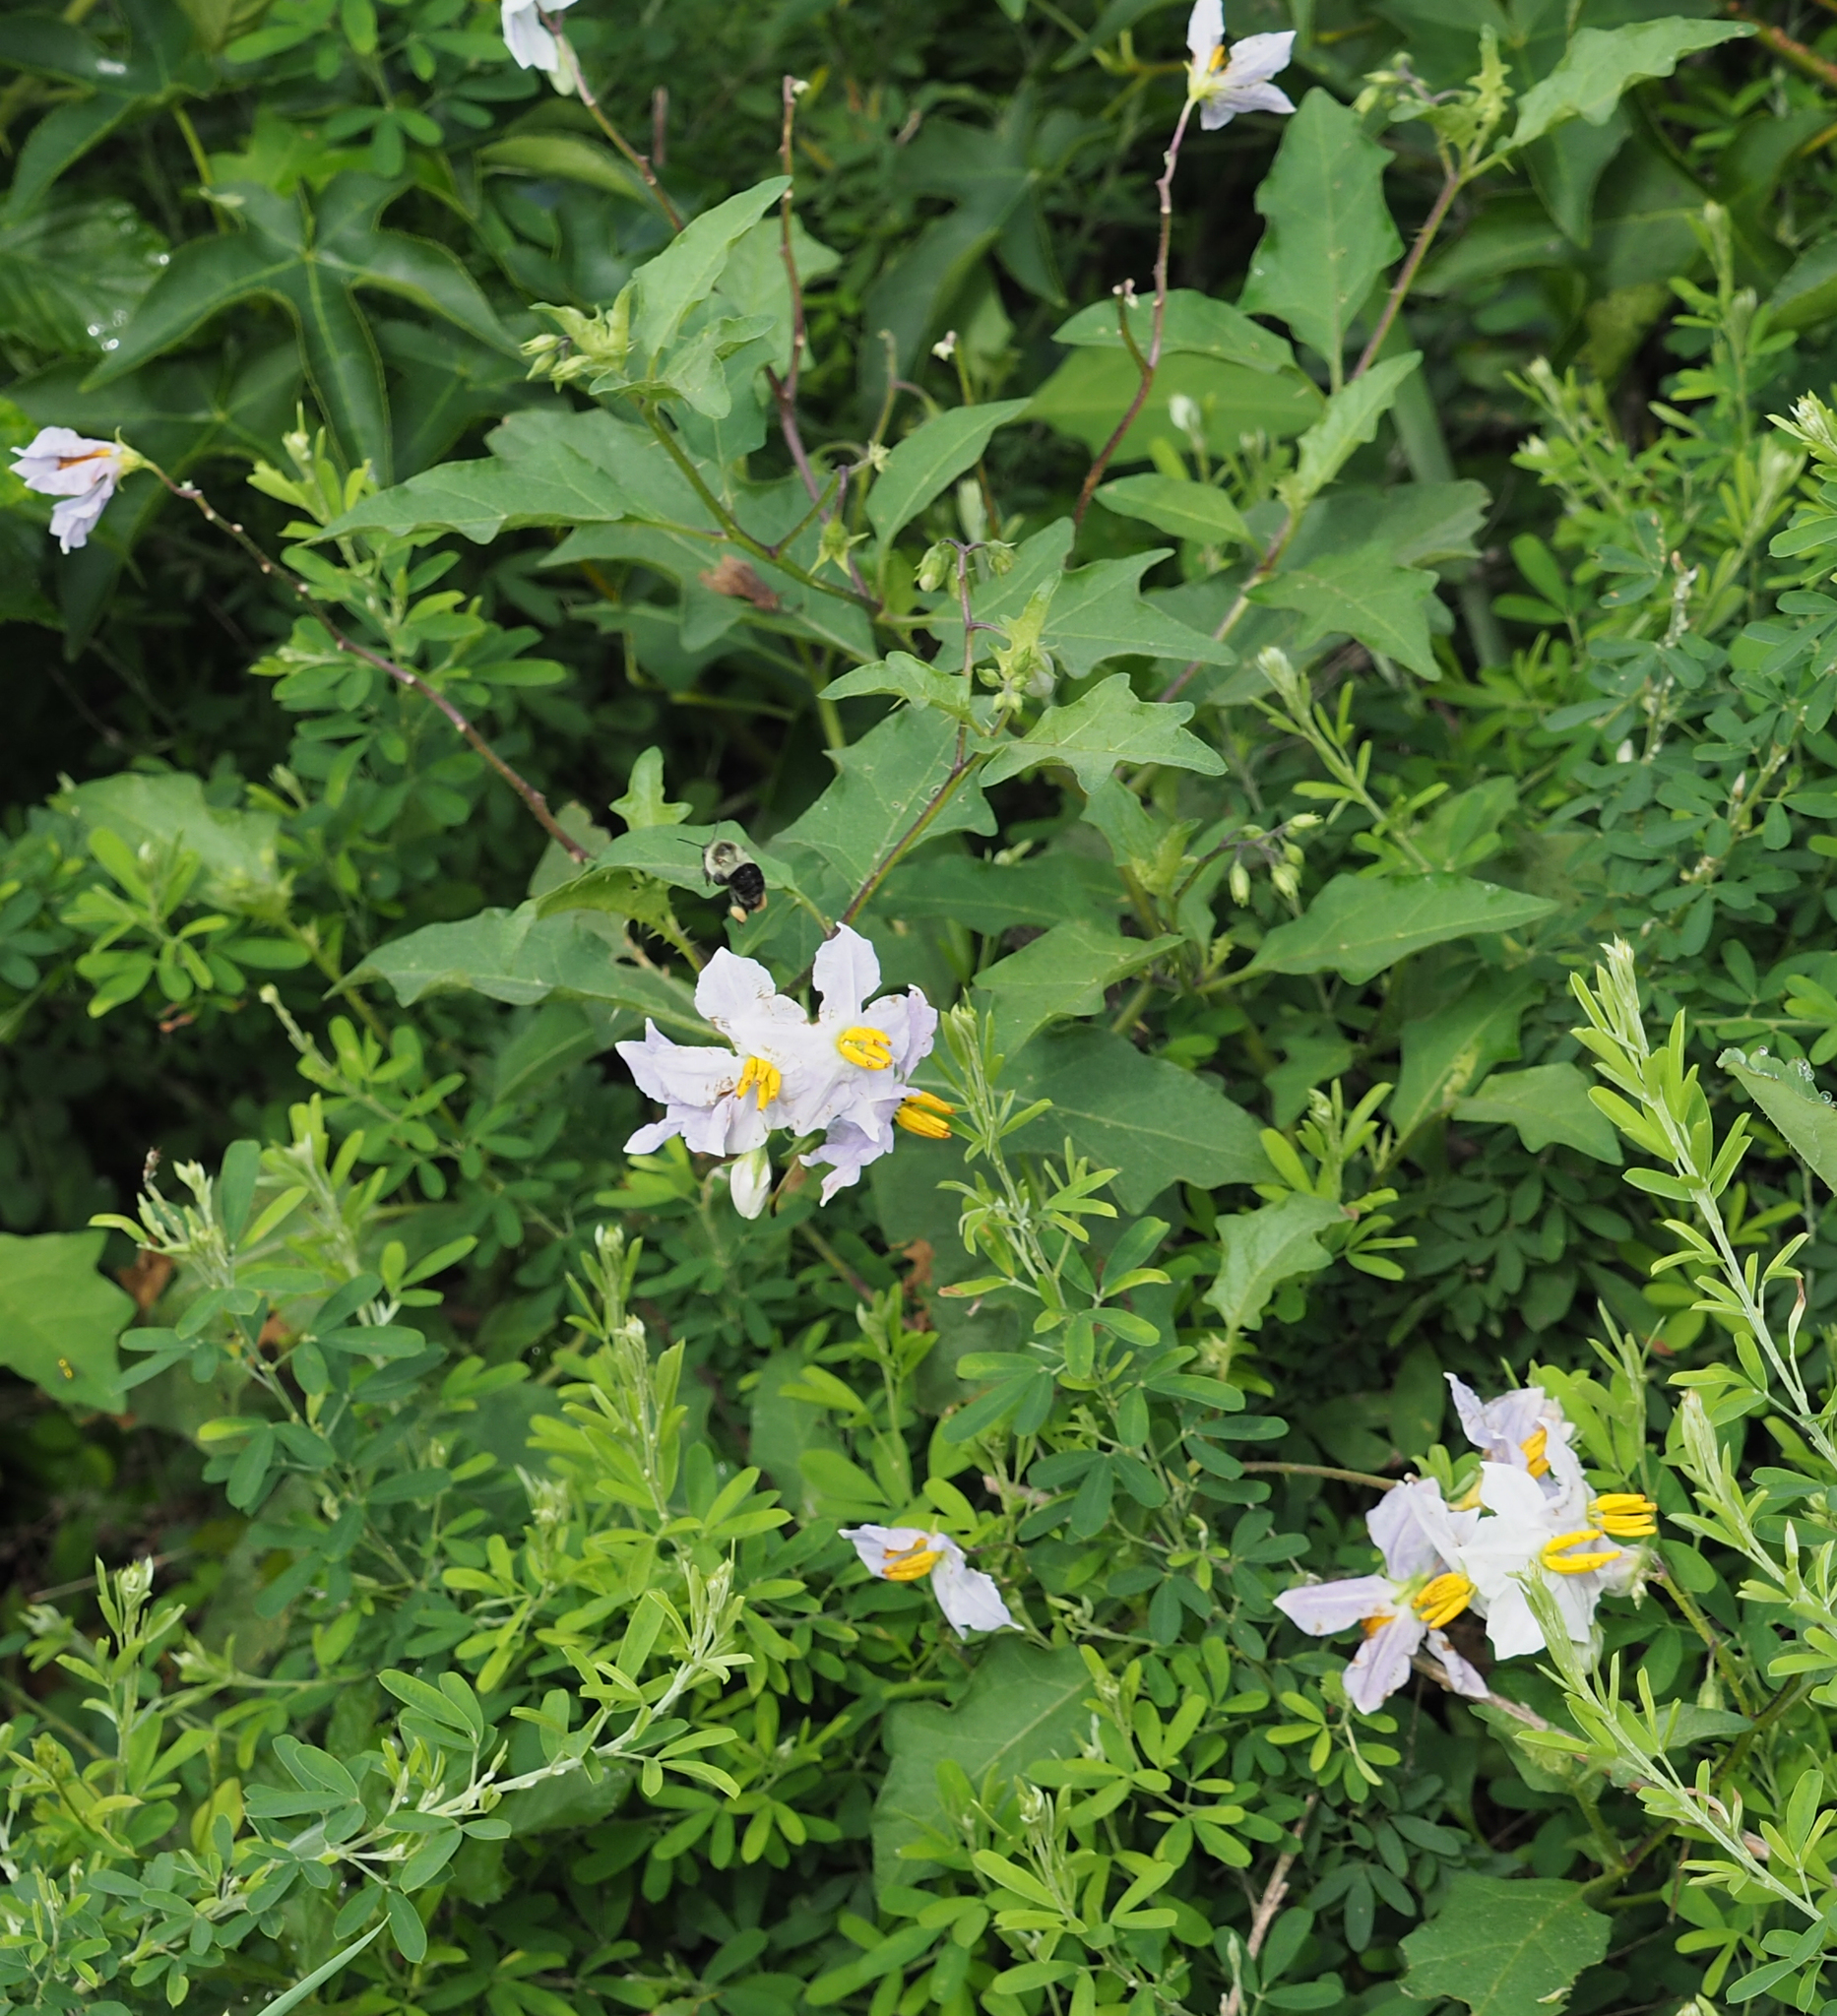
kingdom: Plantae
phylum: Tracheophyta
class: Magnoliopsida
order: Solanales
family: Solanaceae
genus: Solanum
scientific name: Solanum carolinense
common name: Horse-nettle
